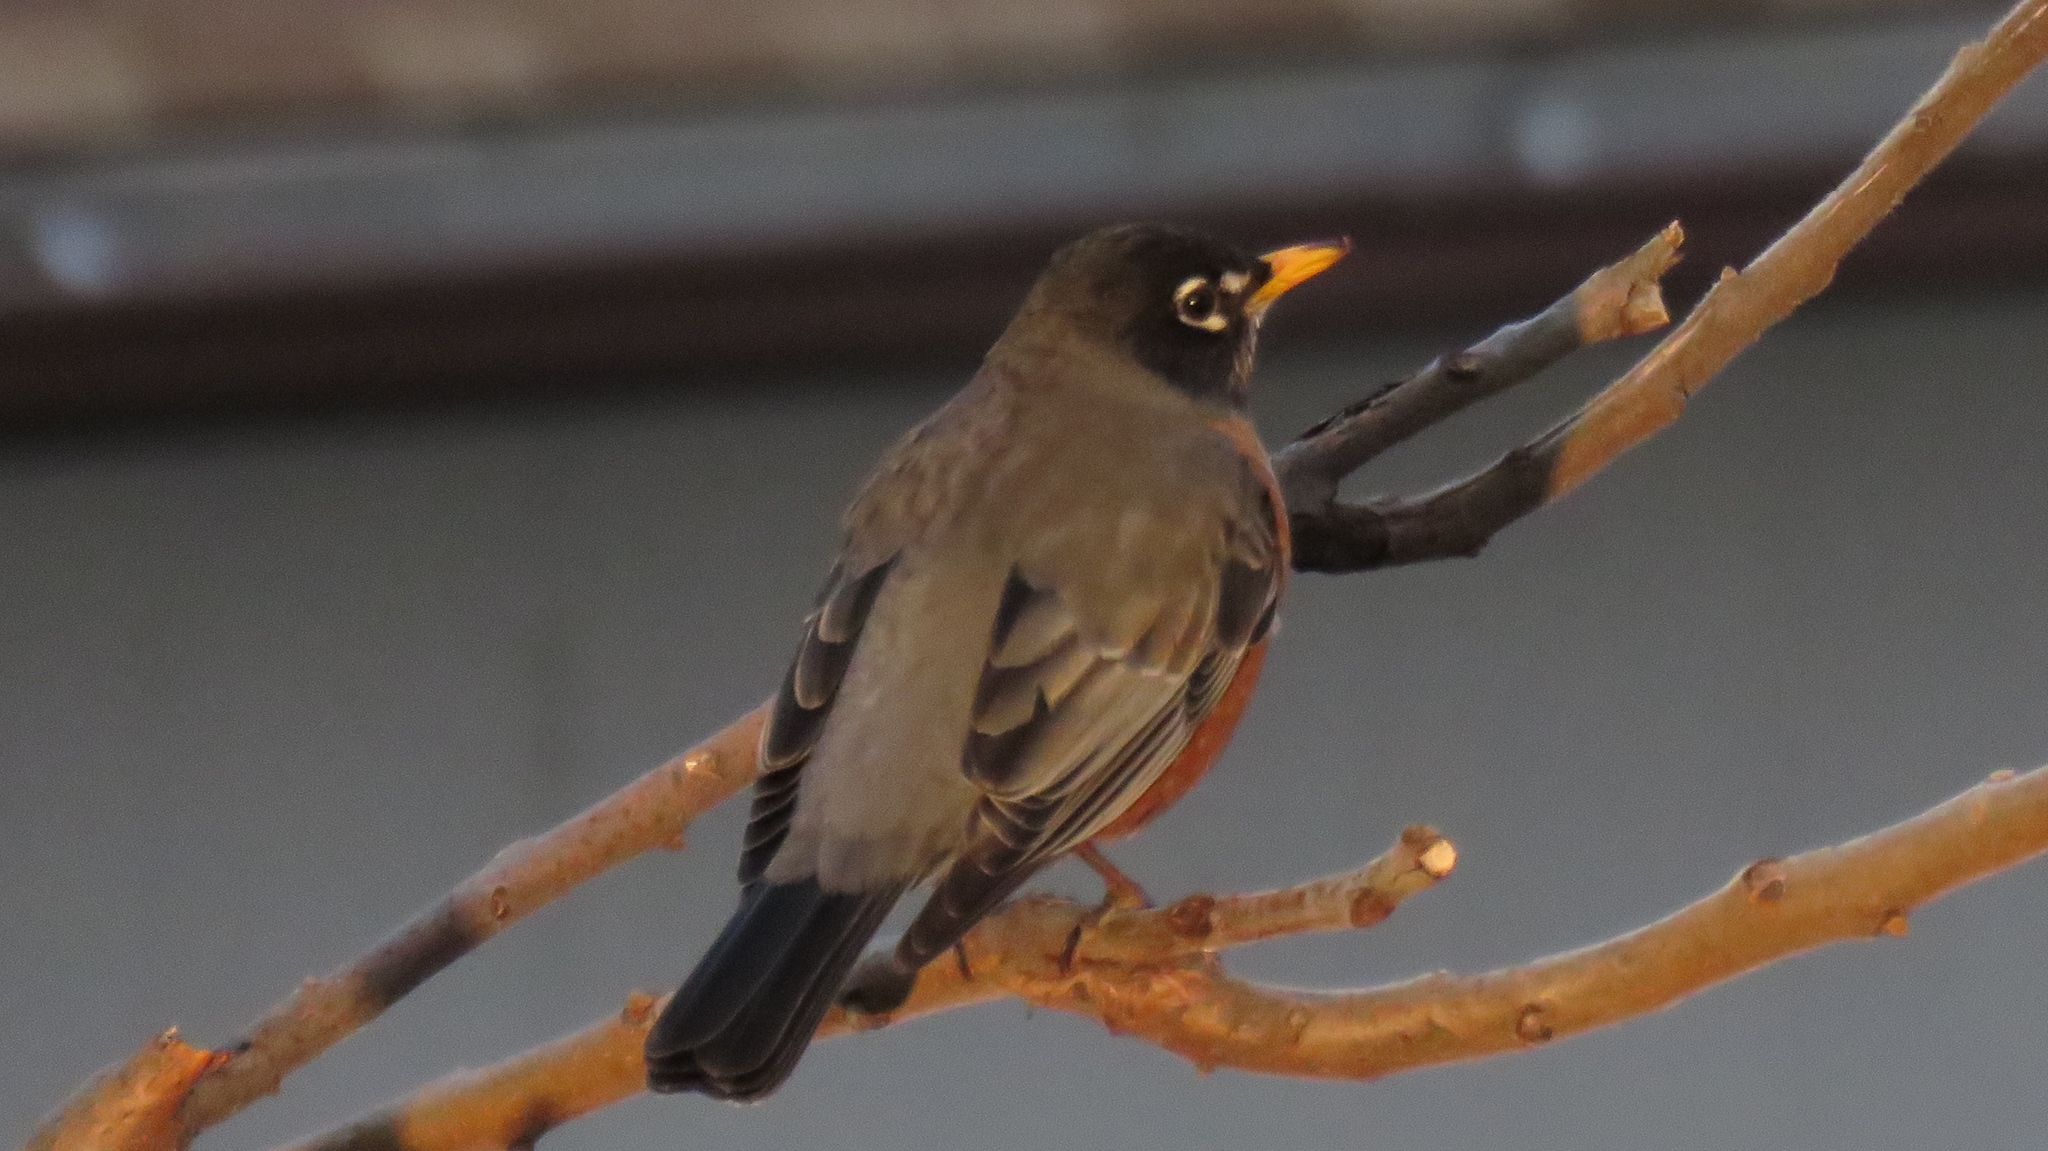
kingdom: Animalia
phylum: Chordata
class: Aves
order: Passeriformes
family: Turdidae
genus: Turdus
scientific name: Turdus migratorius
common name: American robin
